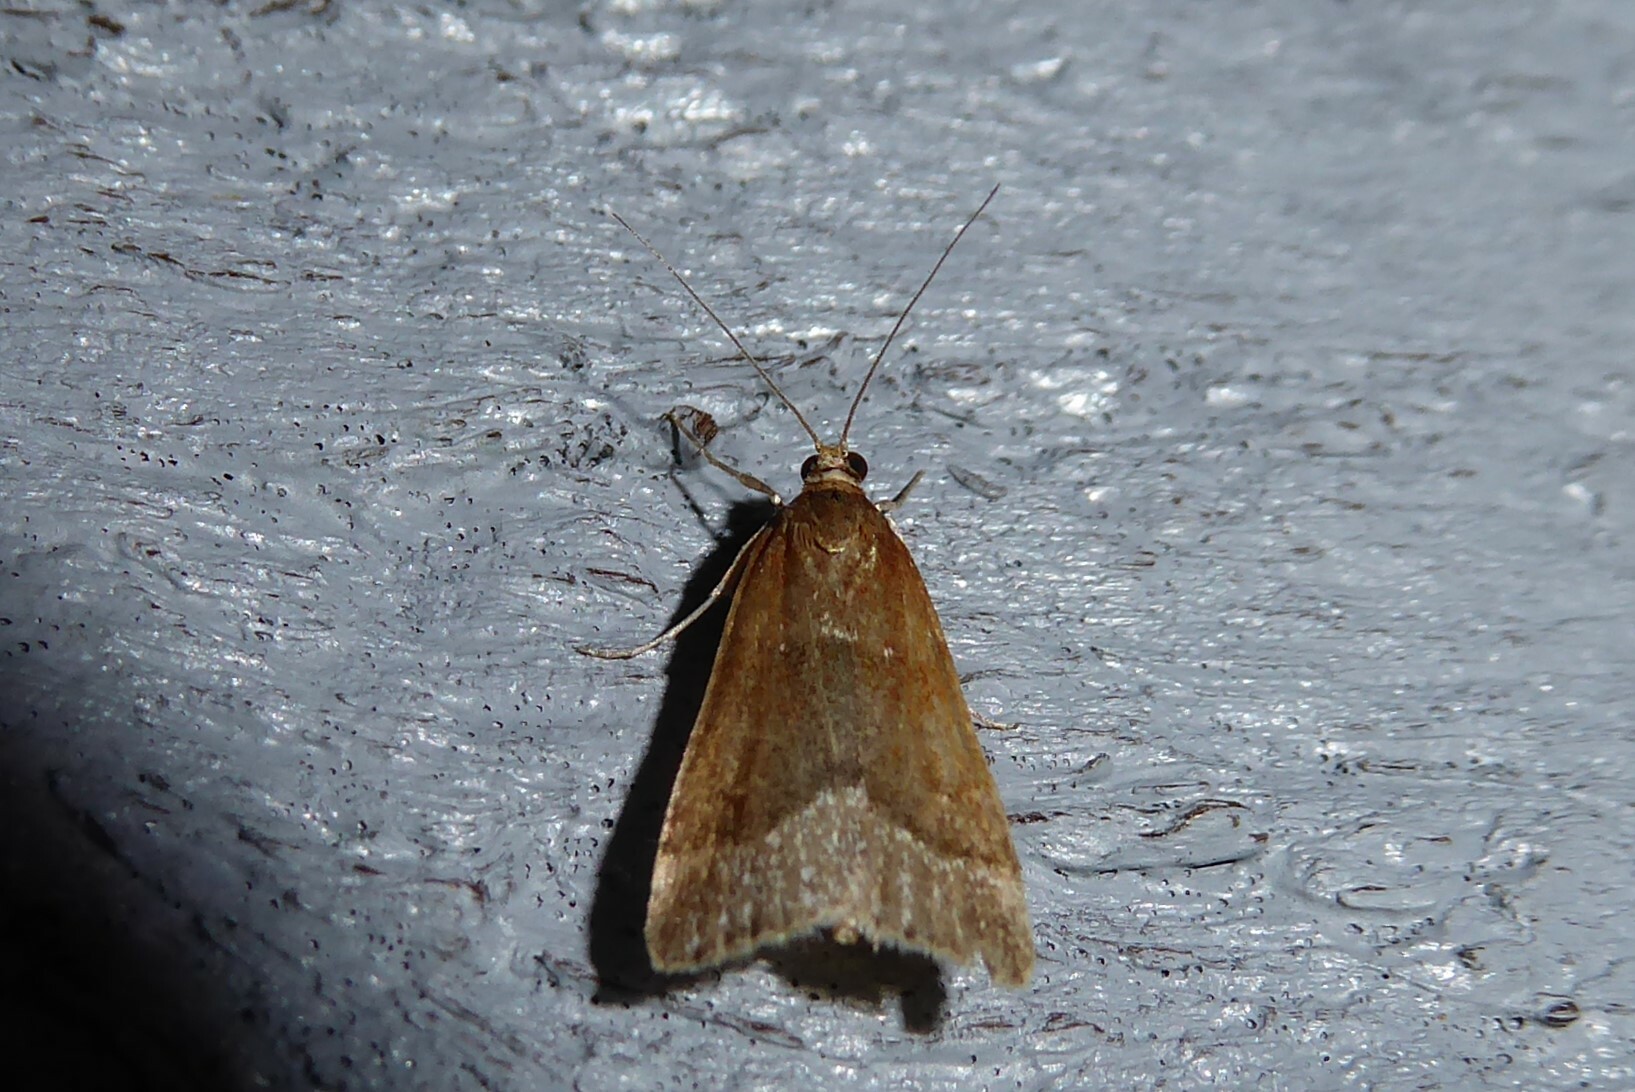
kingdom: Animalia
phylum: Arthropoda
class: Insecta
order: Lepidoptera
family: Crambidae
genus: Eudonia
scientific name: Eudonia feredayi
